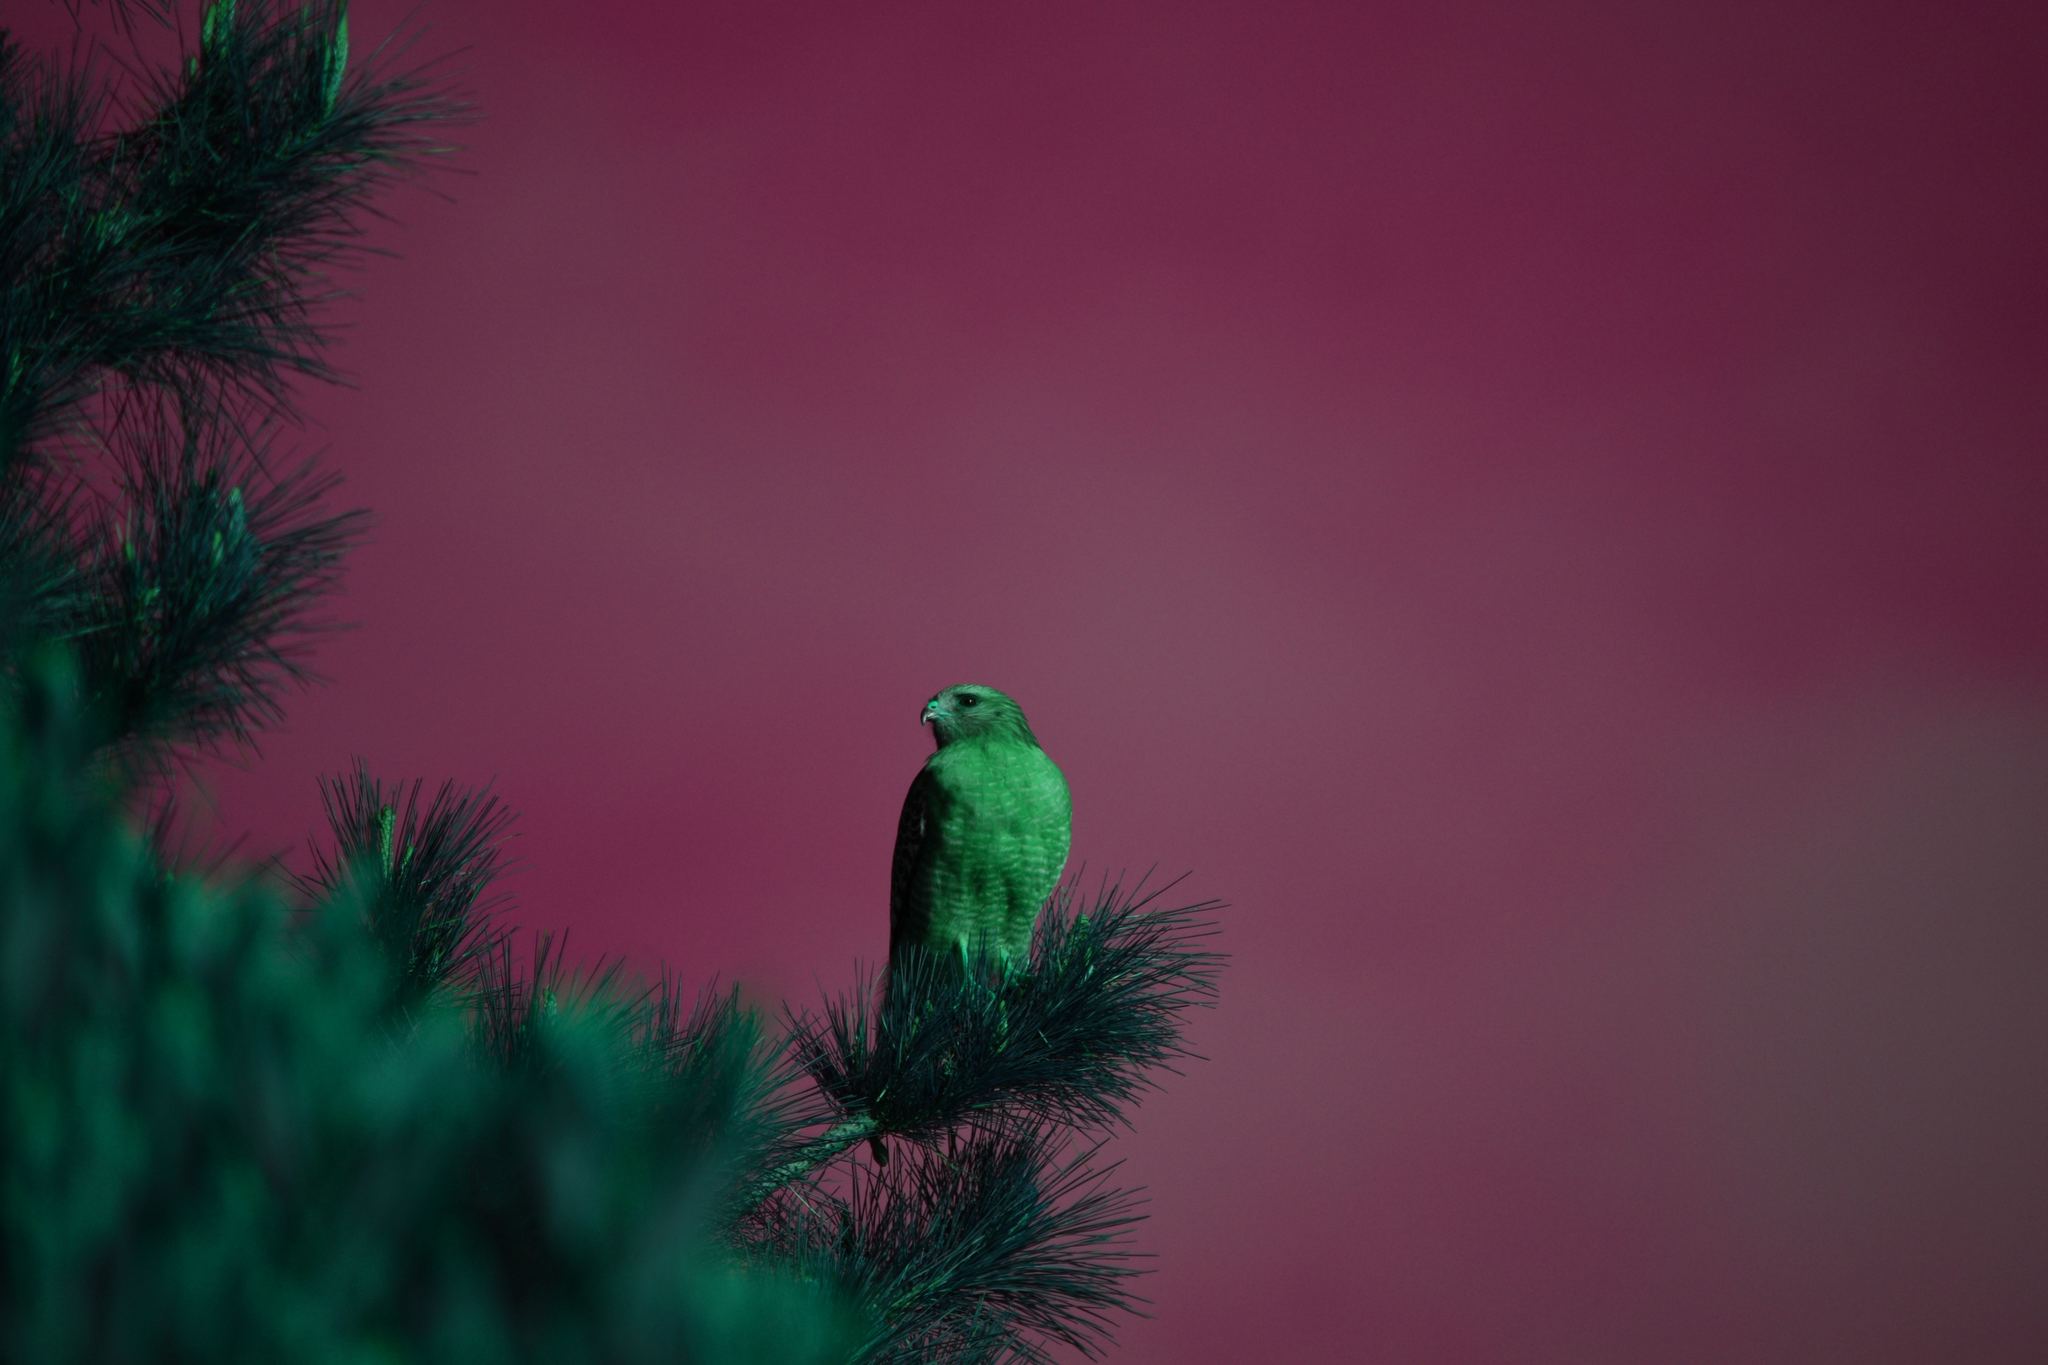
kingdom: Animalia
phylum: Chordata
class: Aves
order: Accipitriformes
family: Accipitridae
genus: Buteo
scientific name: Buteo lineatus
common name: Red-shouldered hawk
